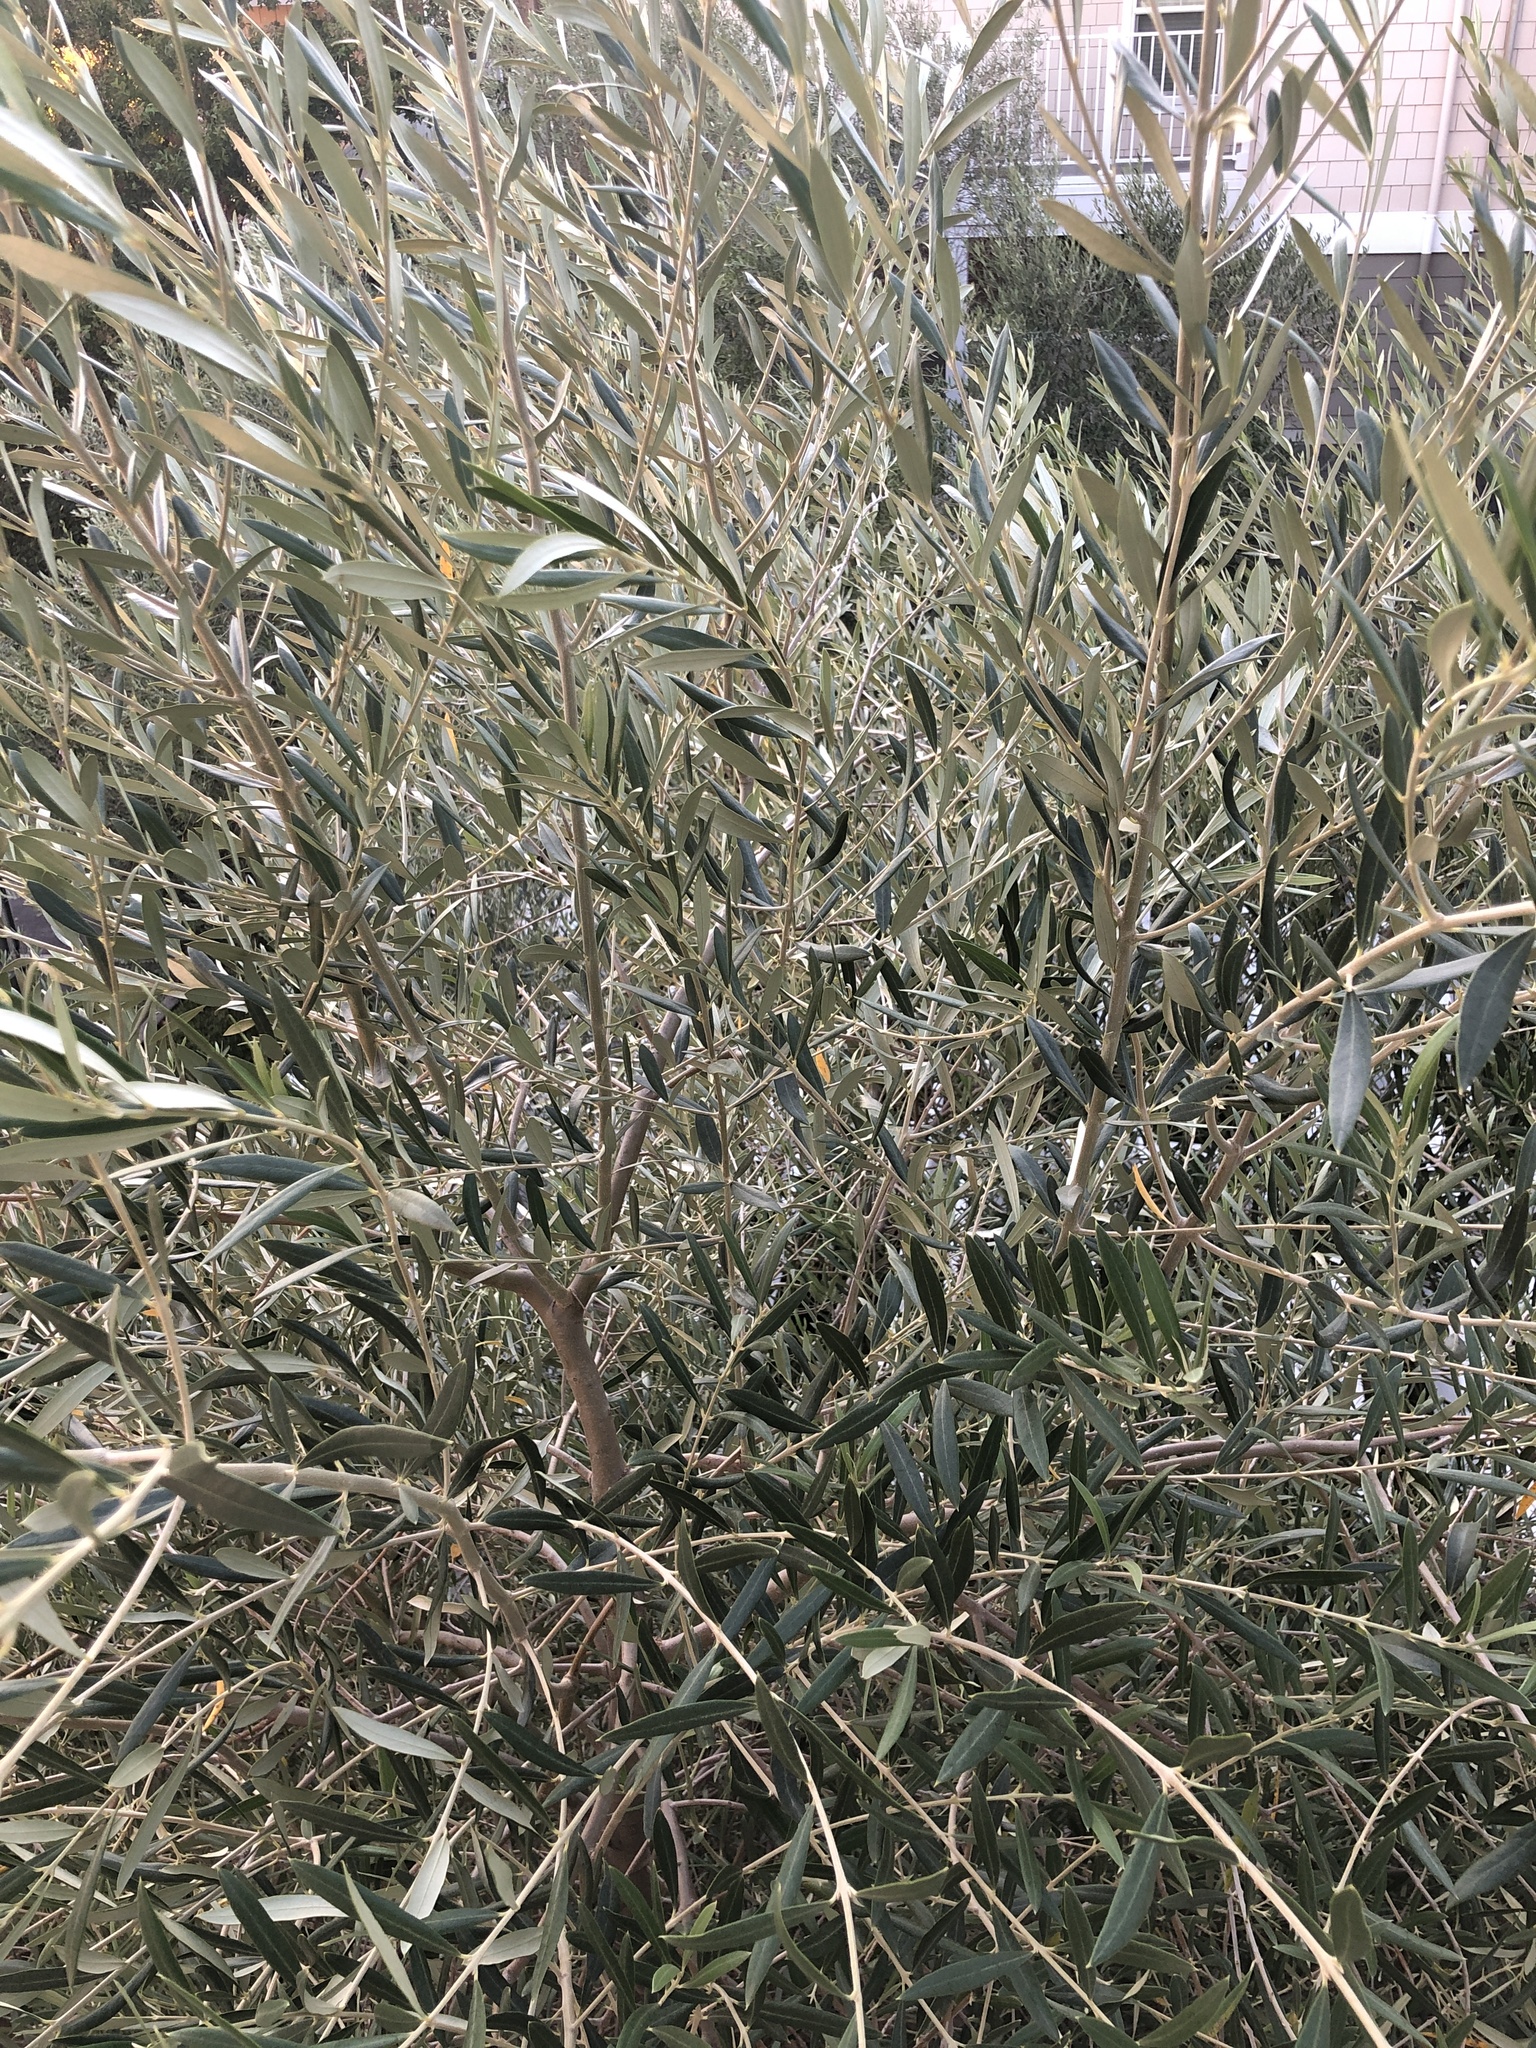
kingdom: Plantae
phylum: Tracheophyta
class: Magnoliopsida
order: Lamiales
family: Oleaceae
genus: Olea
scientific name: Olea europaea
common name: Olive
